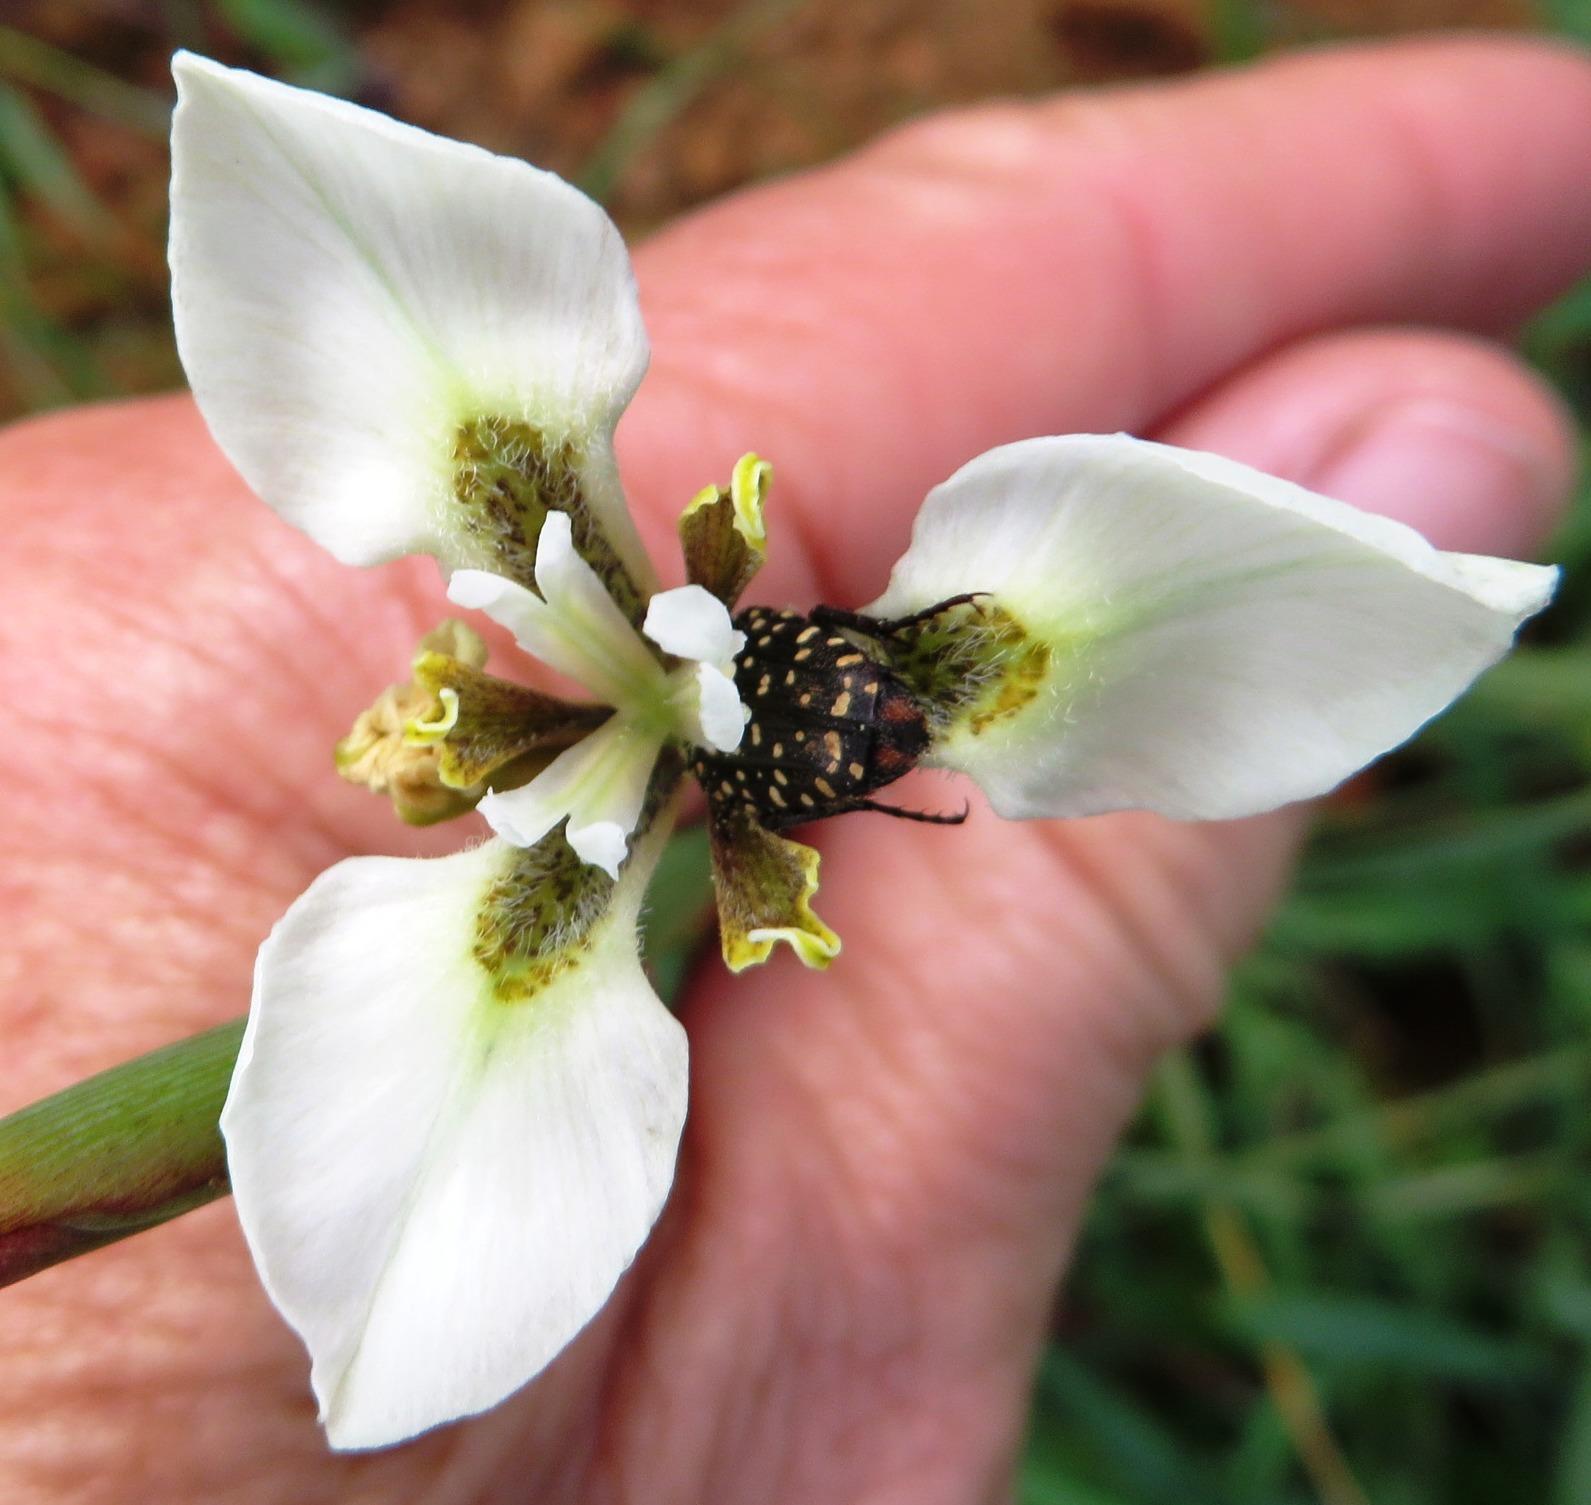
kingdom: Plantae
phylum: Tracheophyta
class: Liliopsida
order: Asparagales
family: Iridaceae
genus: Moraea
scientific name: Moraea tricuspidata
